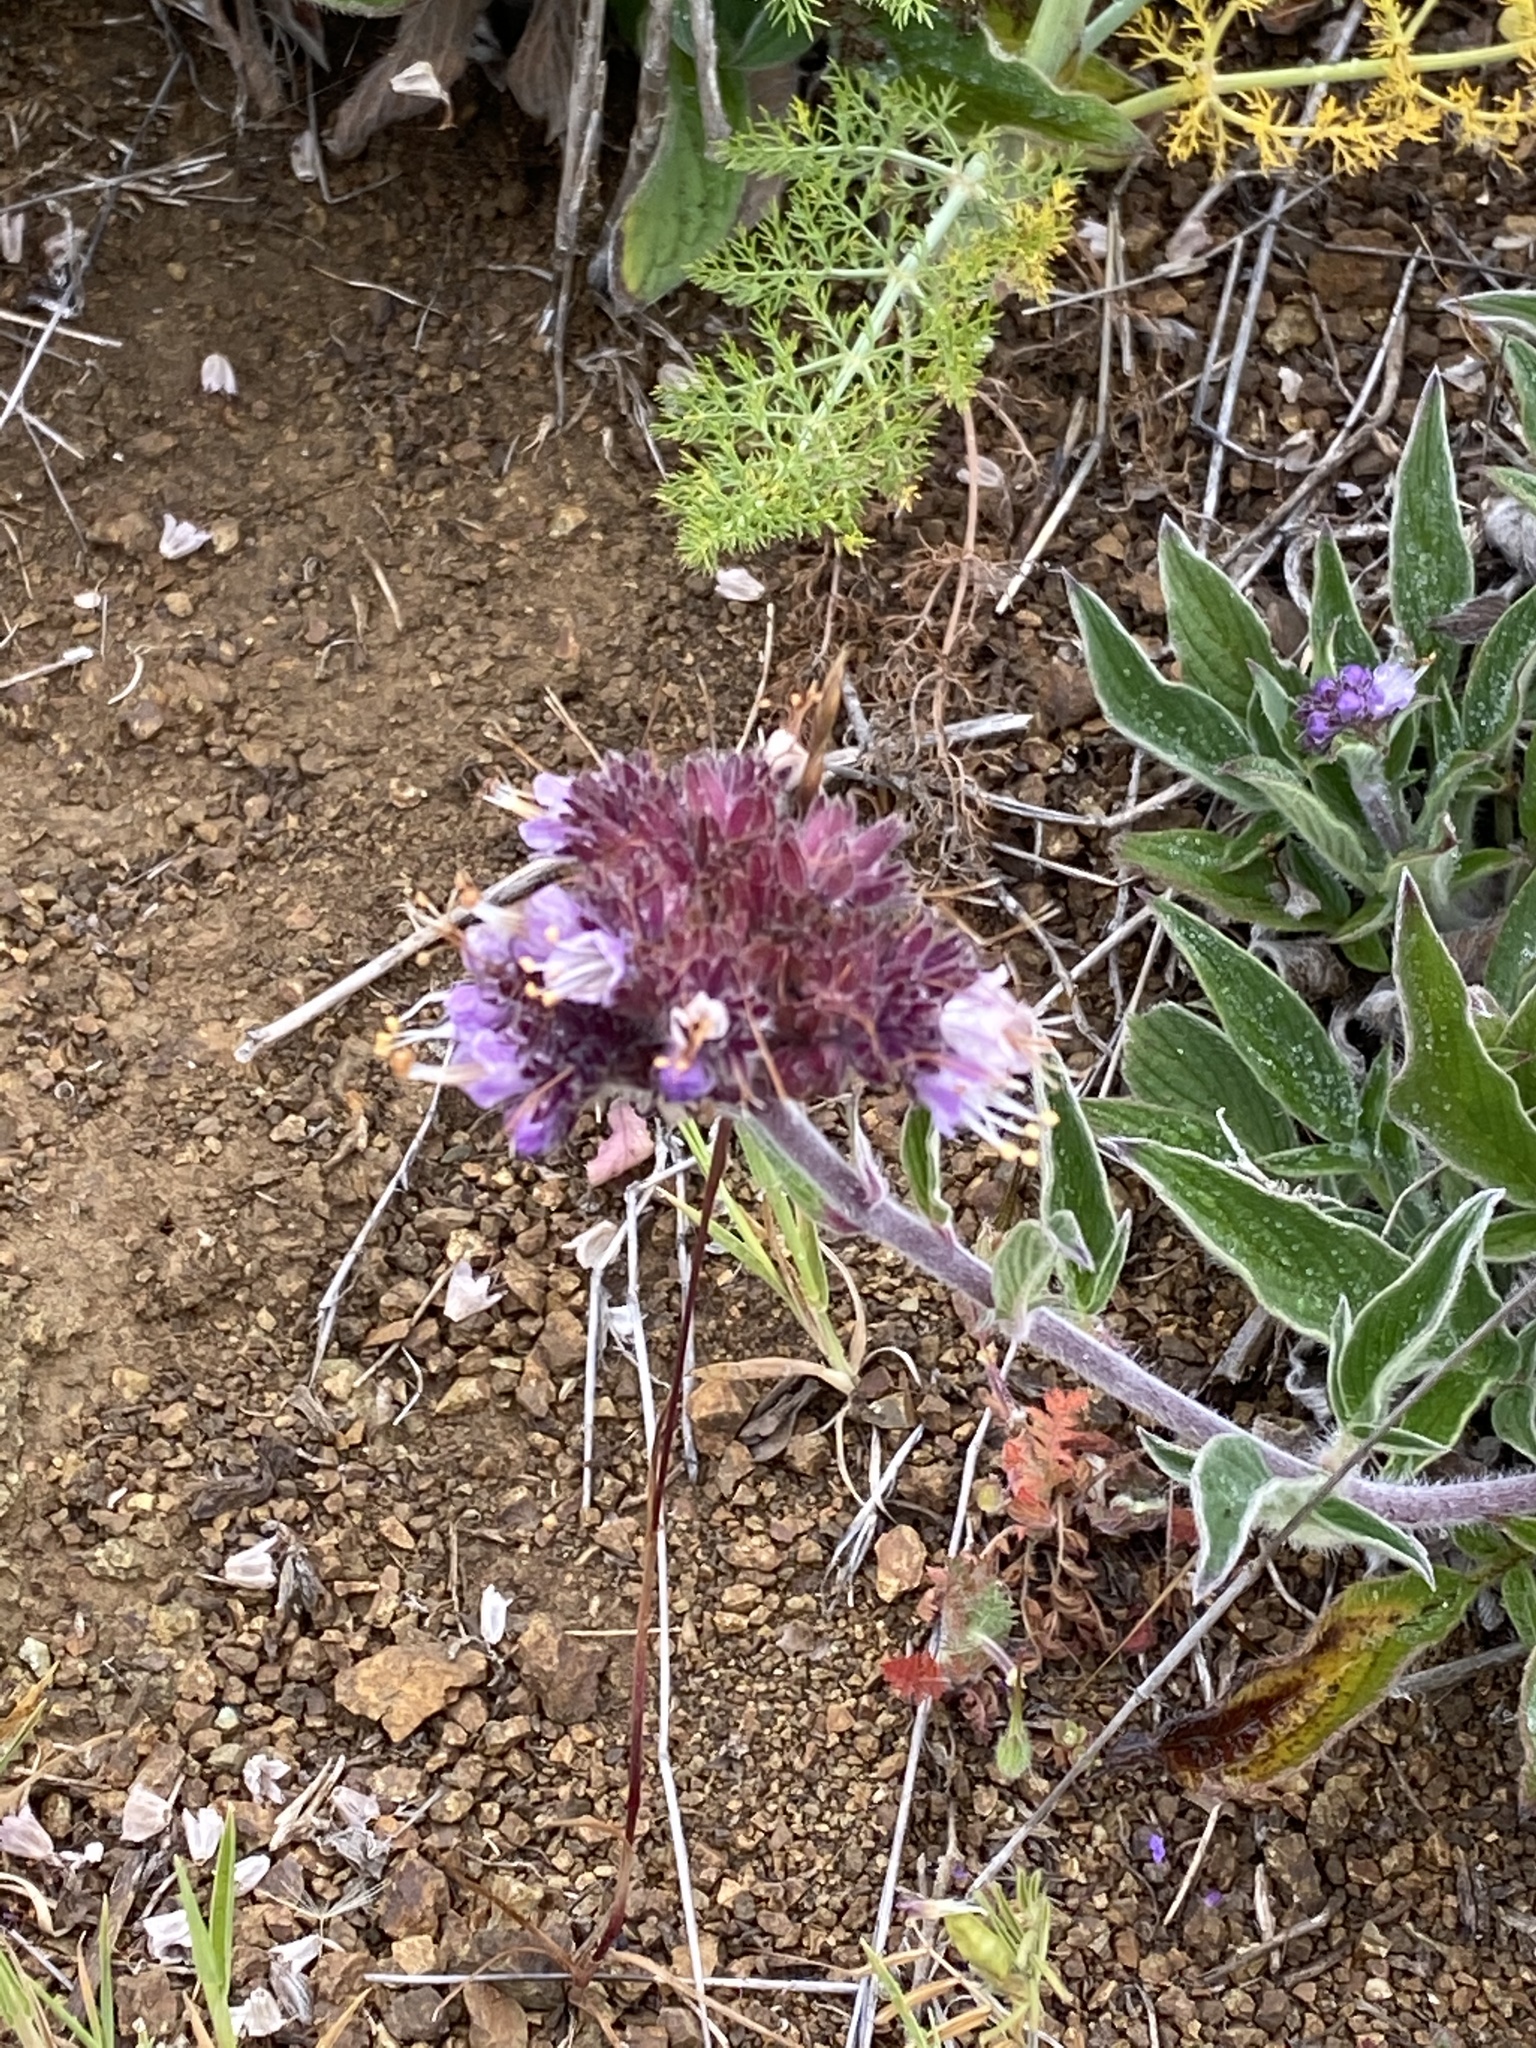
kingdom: Plantae
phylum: Tracheophyta
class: Magnoliopsida
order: Boraginales
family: Hydrophyllaceae
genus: Phacelia
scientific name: Phacelia californica
